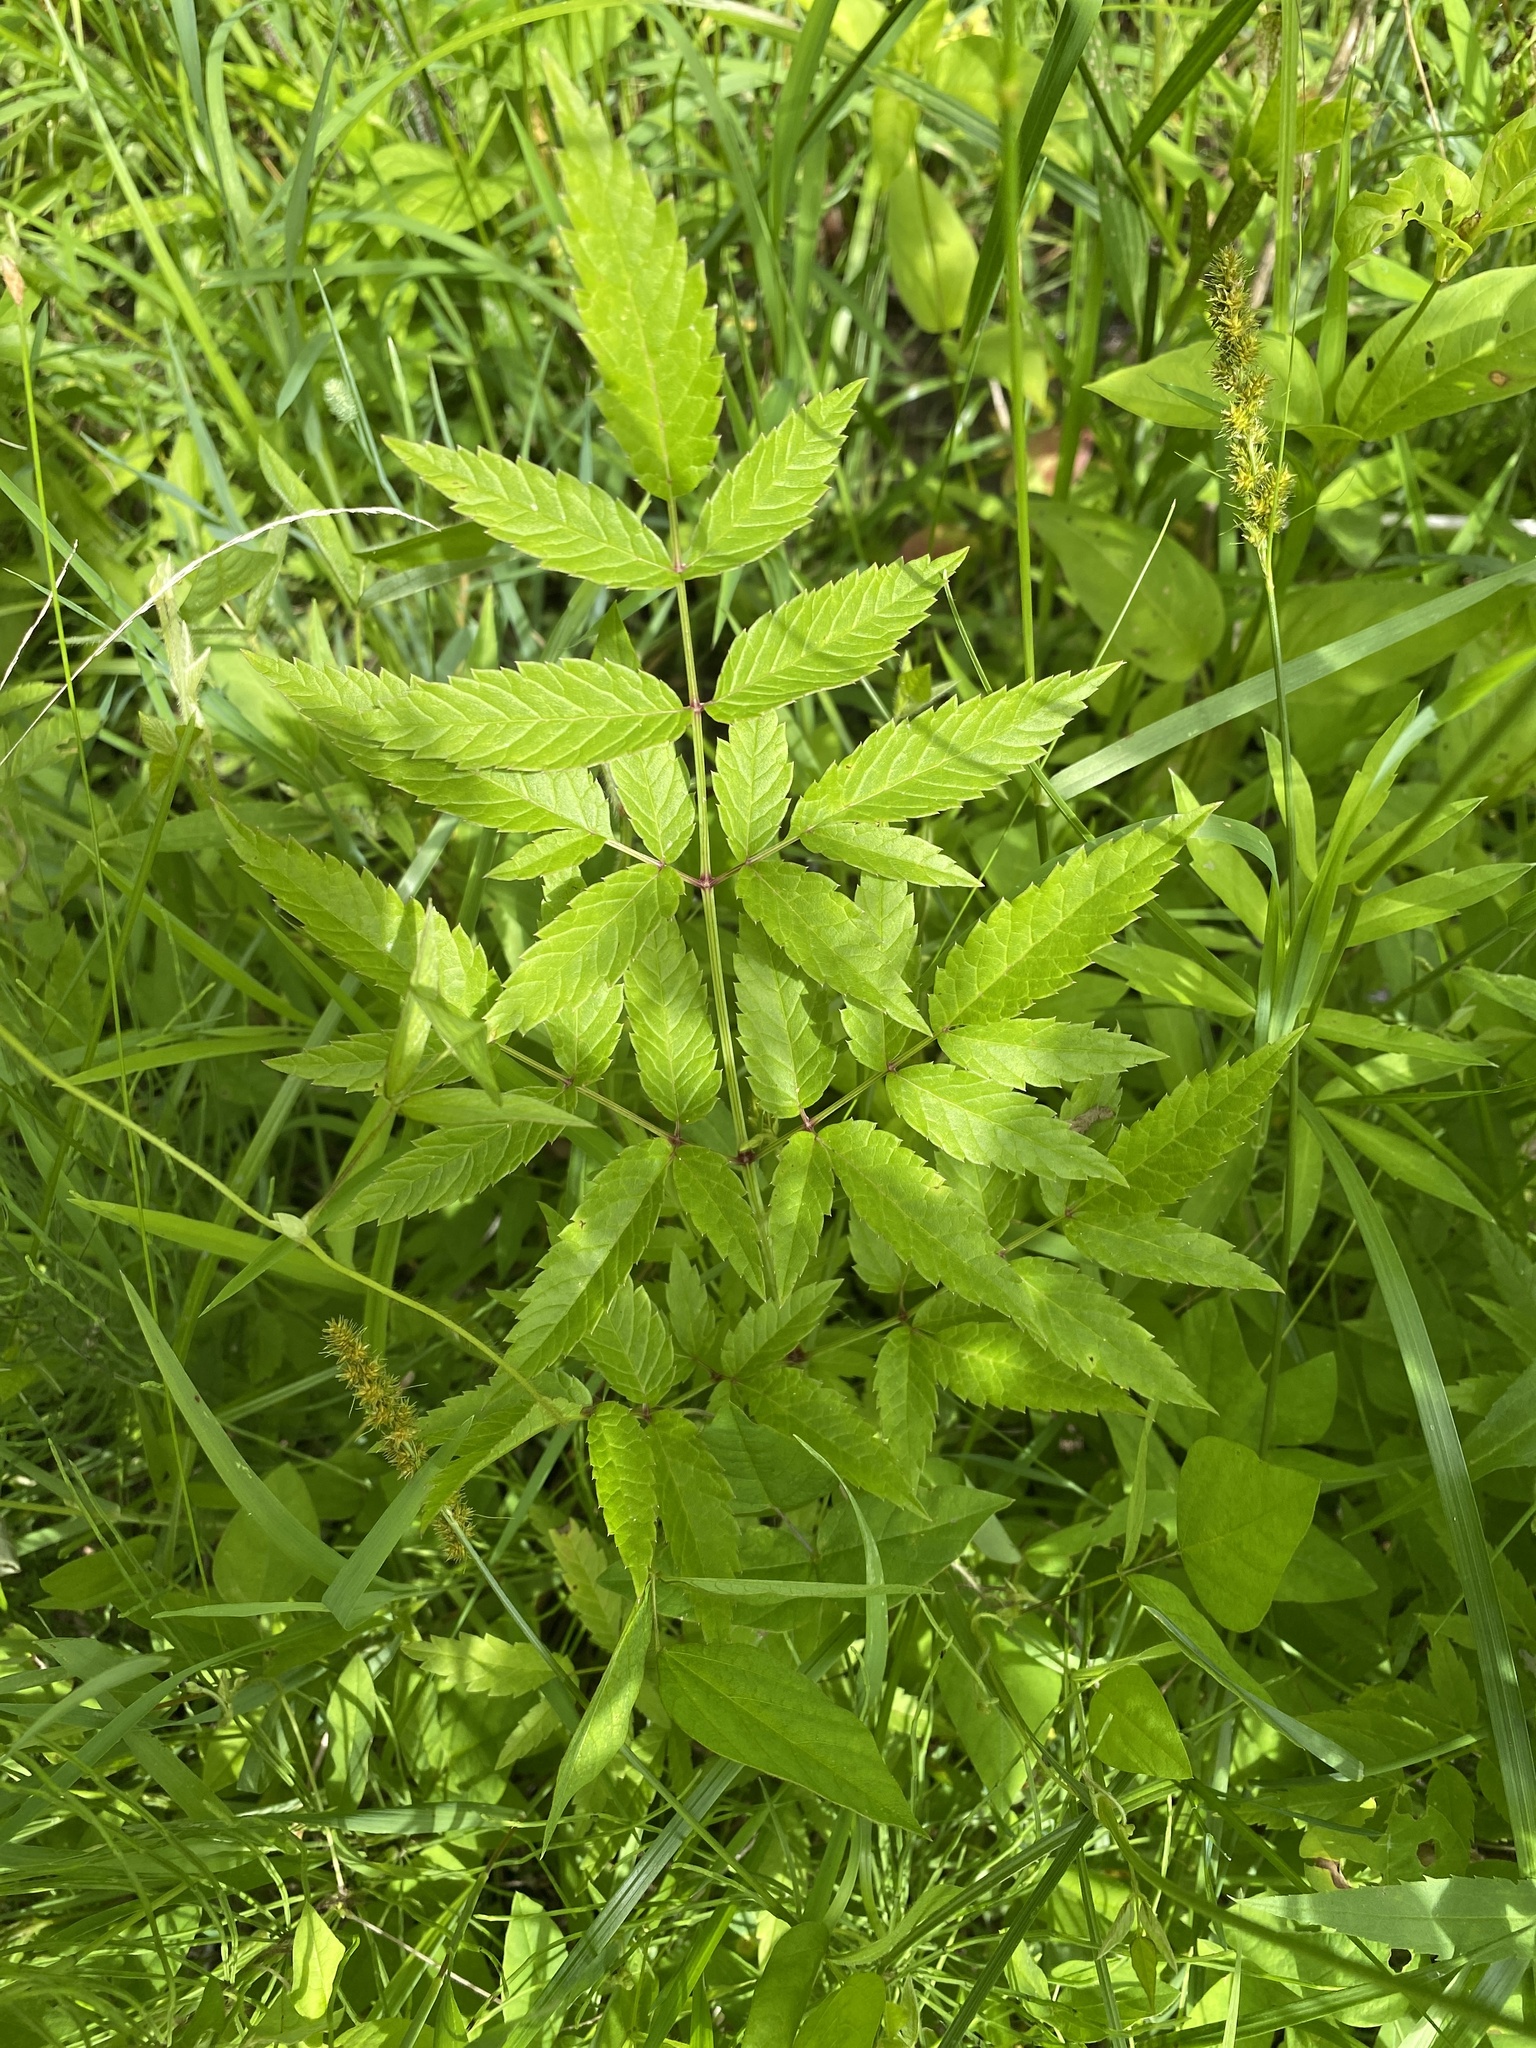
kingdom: Plantae
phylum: Tracheophyta
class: Magnoliopsida
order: Apiales
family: Apiaceae
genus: Cicuta
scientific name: Cicuta maculata
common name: Spotted cowbane
